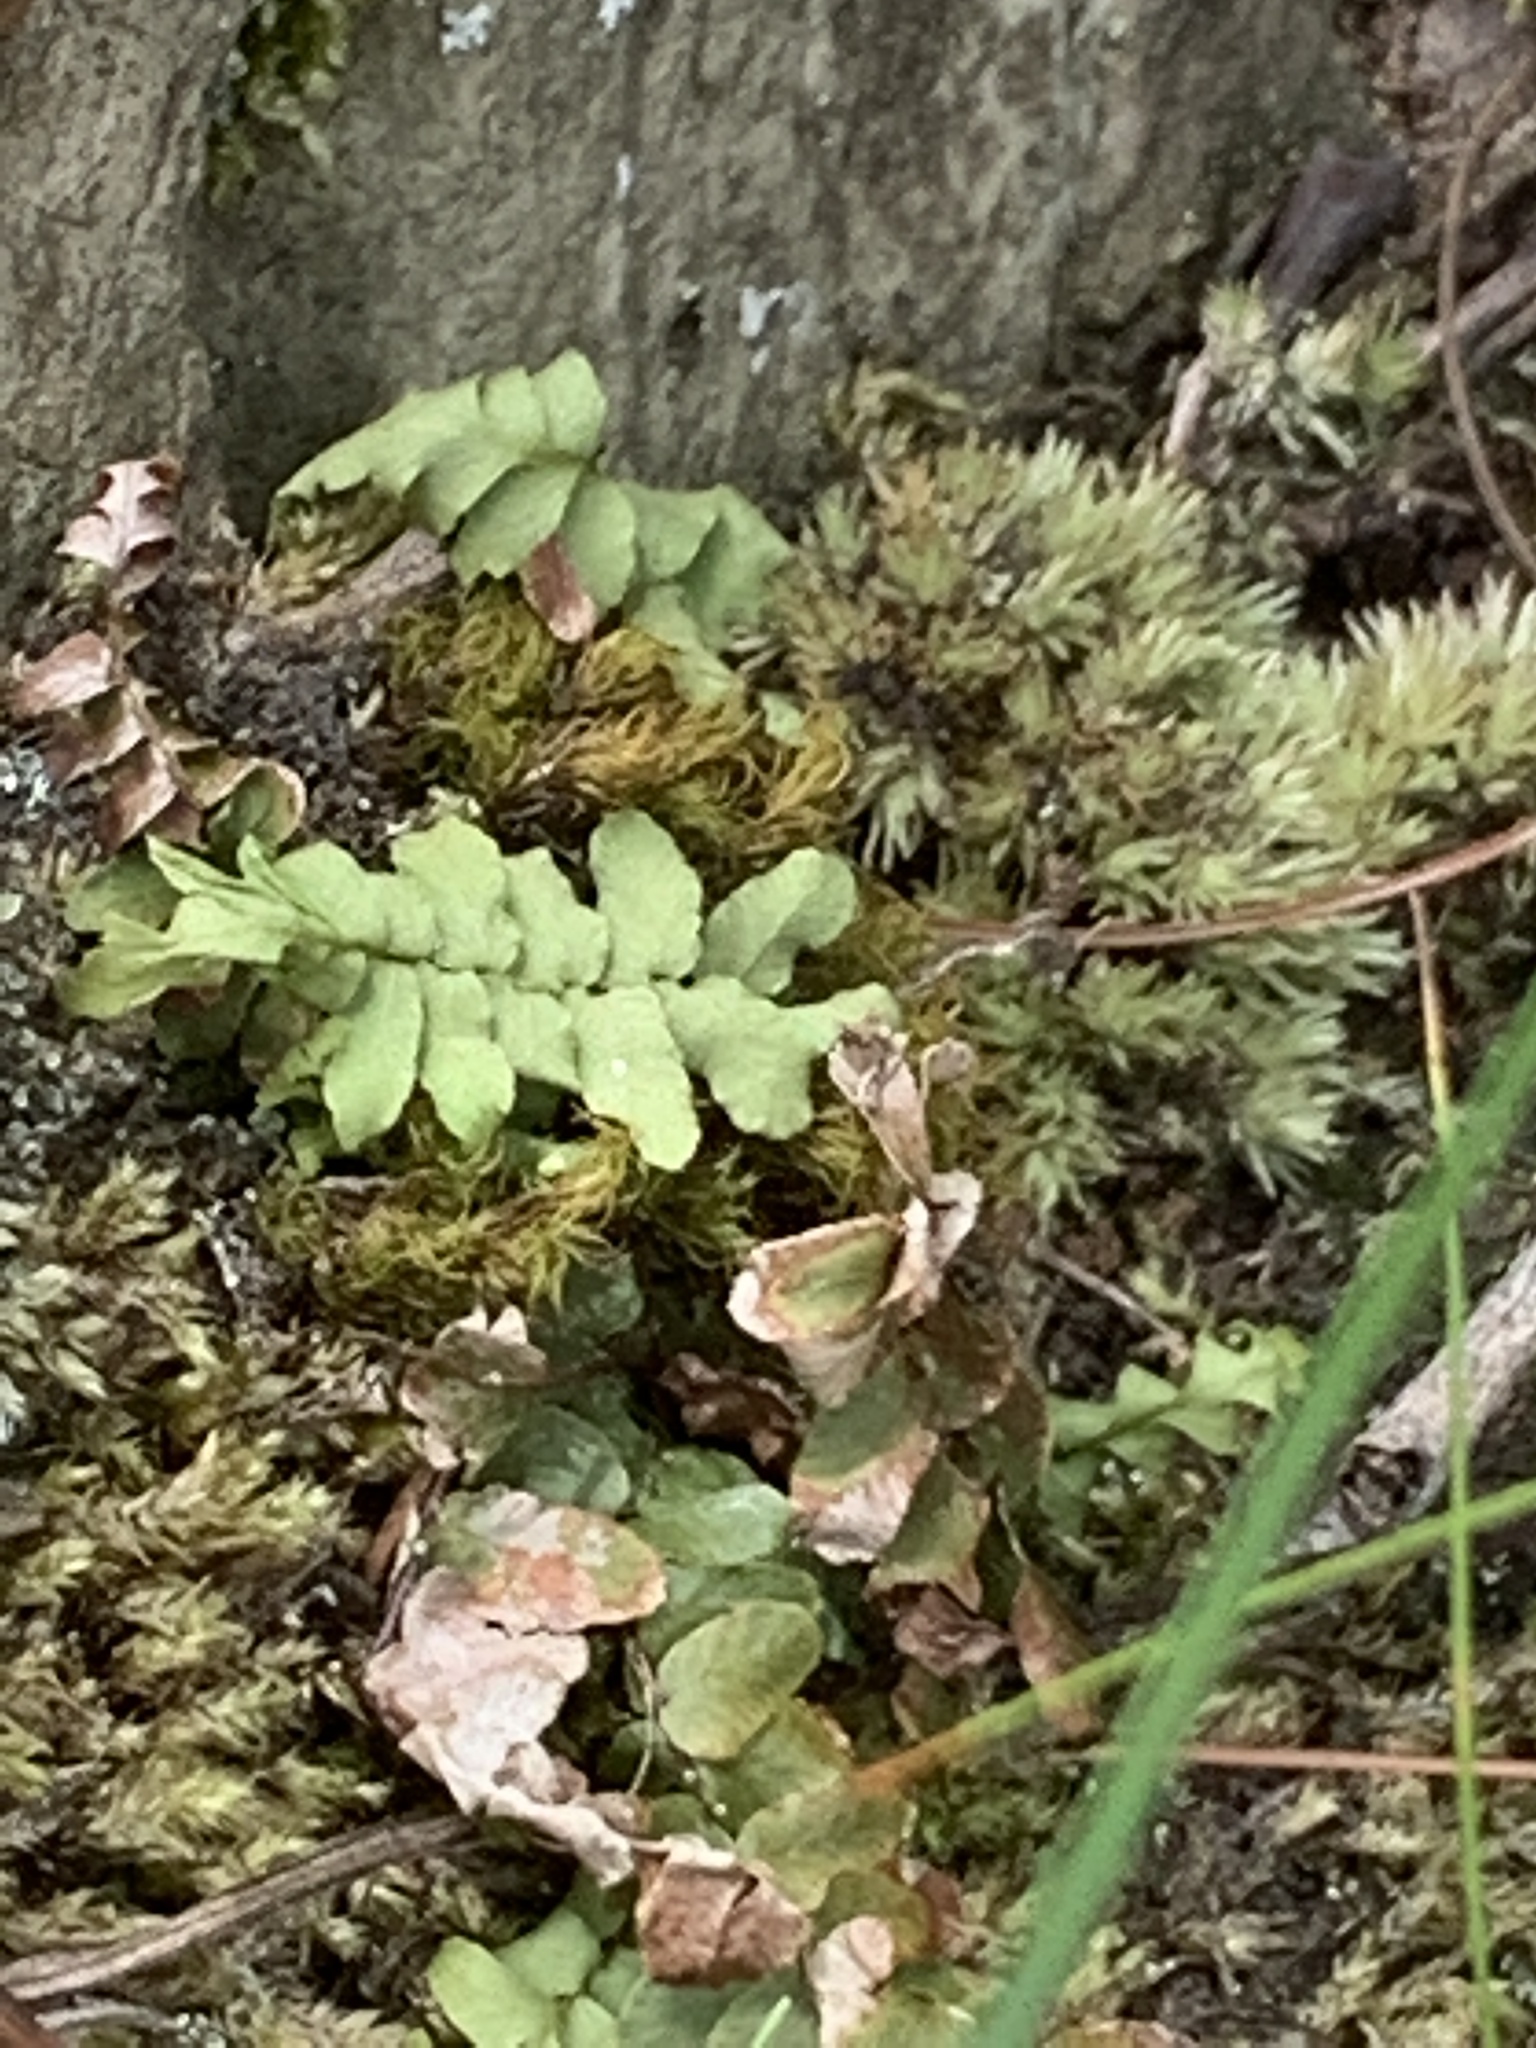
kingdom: Plantae
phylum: Tracheophyta
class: Polypodiopsida
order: Polypodiales
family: Aspleniaceae
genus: Asplenium
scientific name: Asplenium platyneuron
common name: Ebony spleenwort
